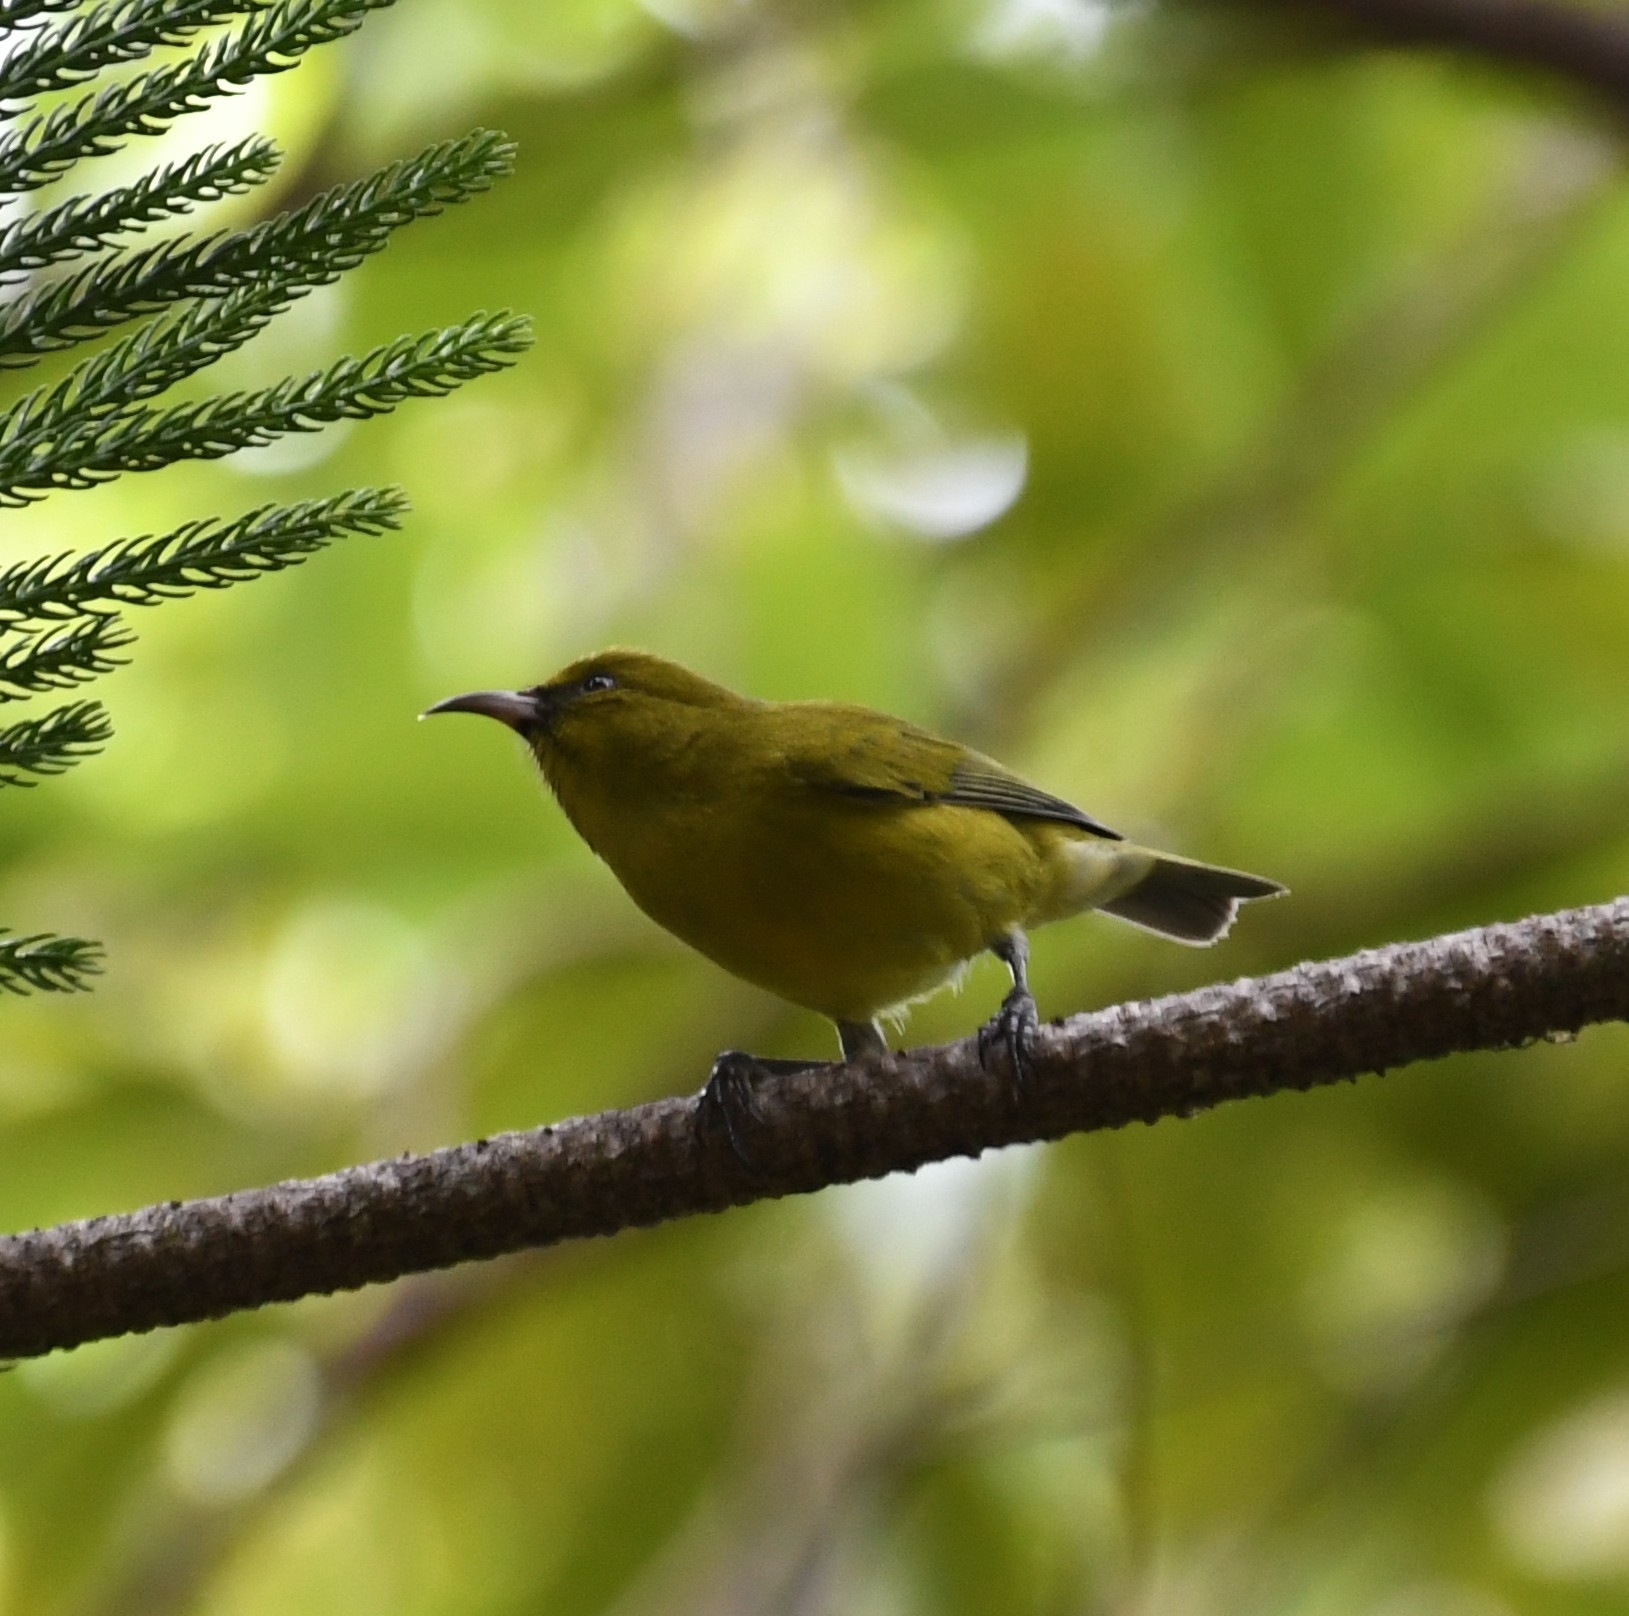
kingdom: Animalia
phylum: Chordata
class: Aves
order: Passeriformes
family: Fringillidae
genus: Chlorodrepanis
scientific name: Chlorodrepanis flava
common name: Oahu amakihi
